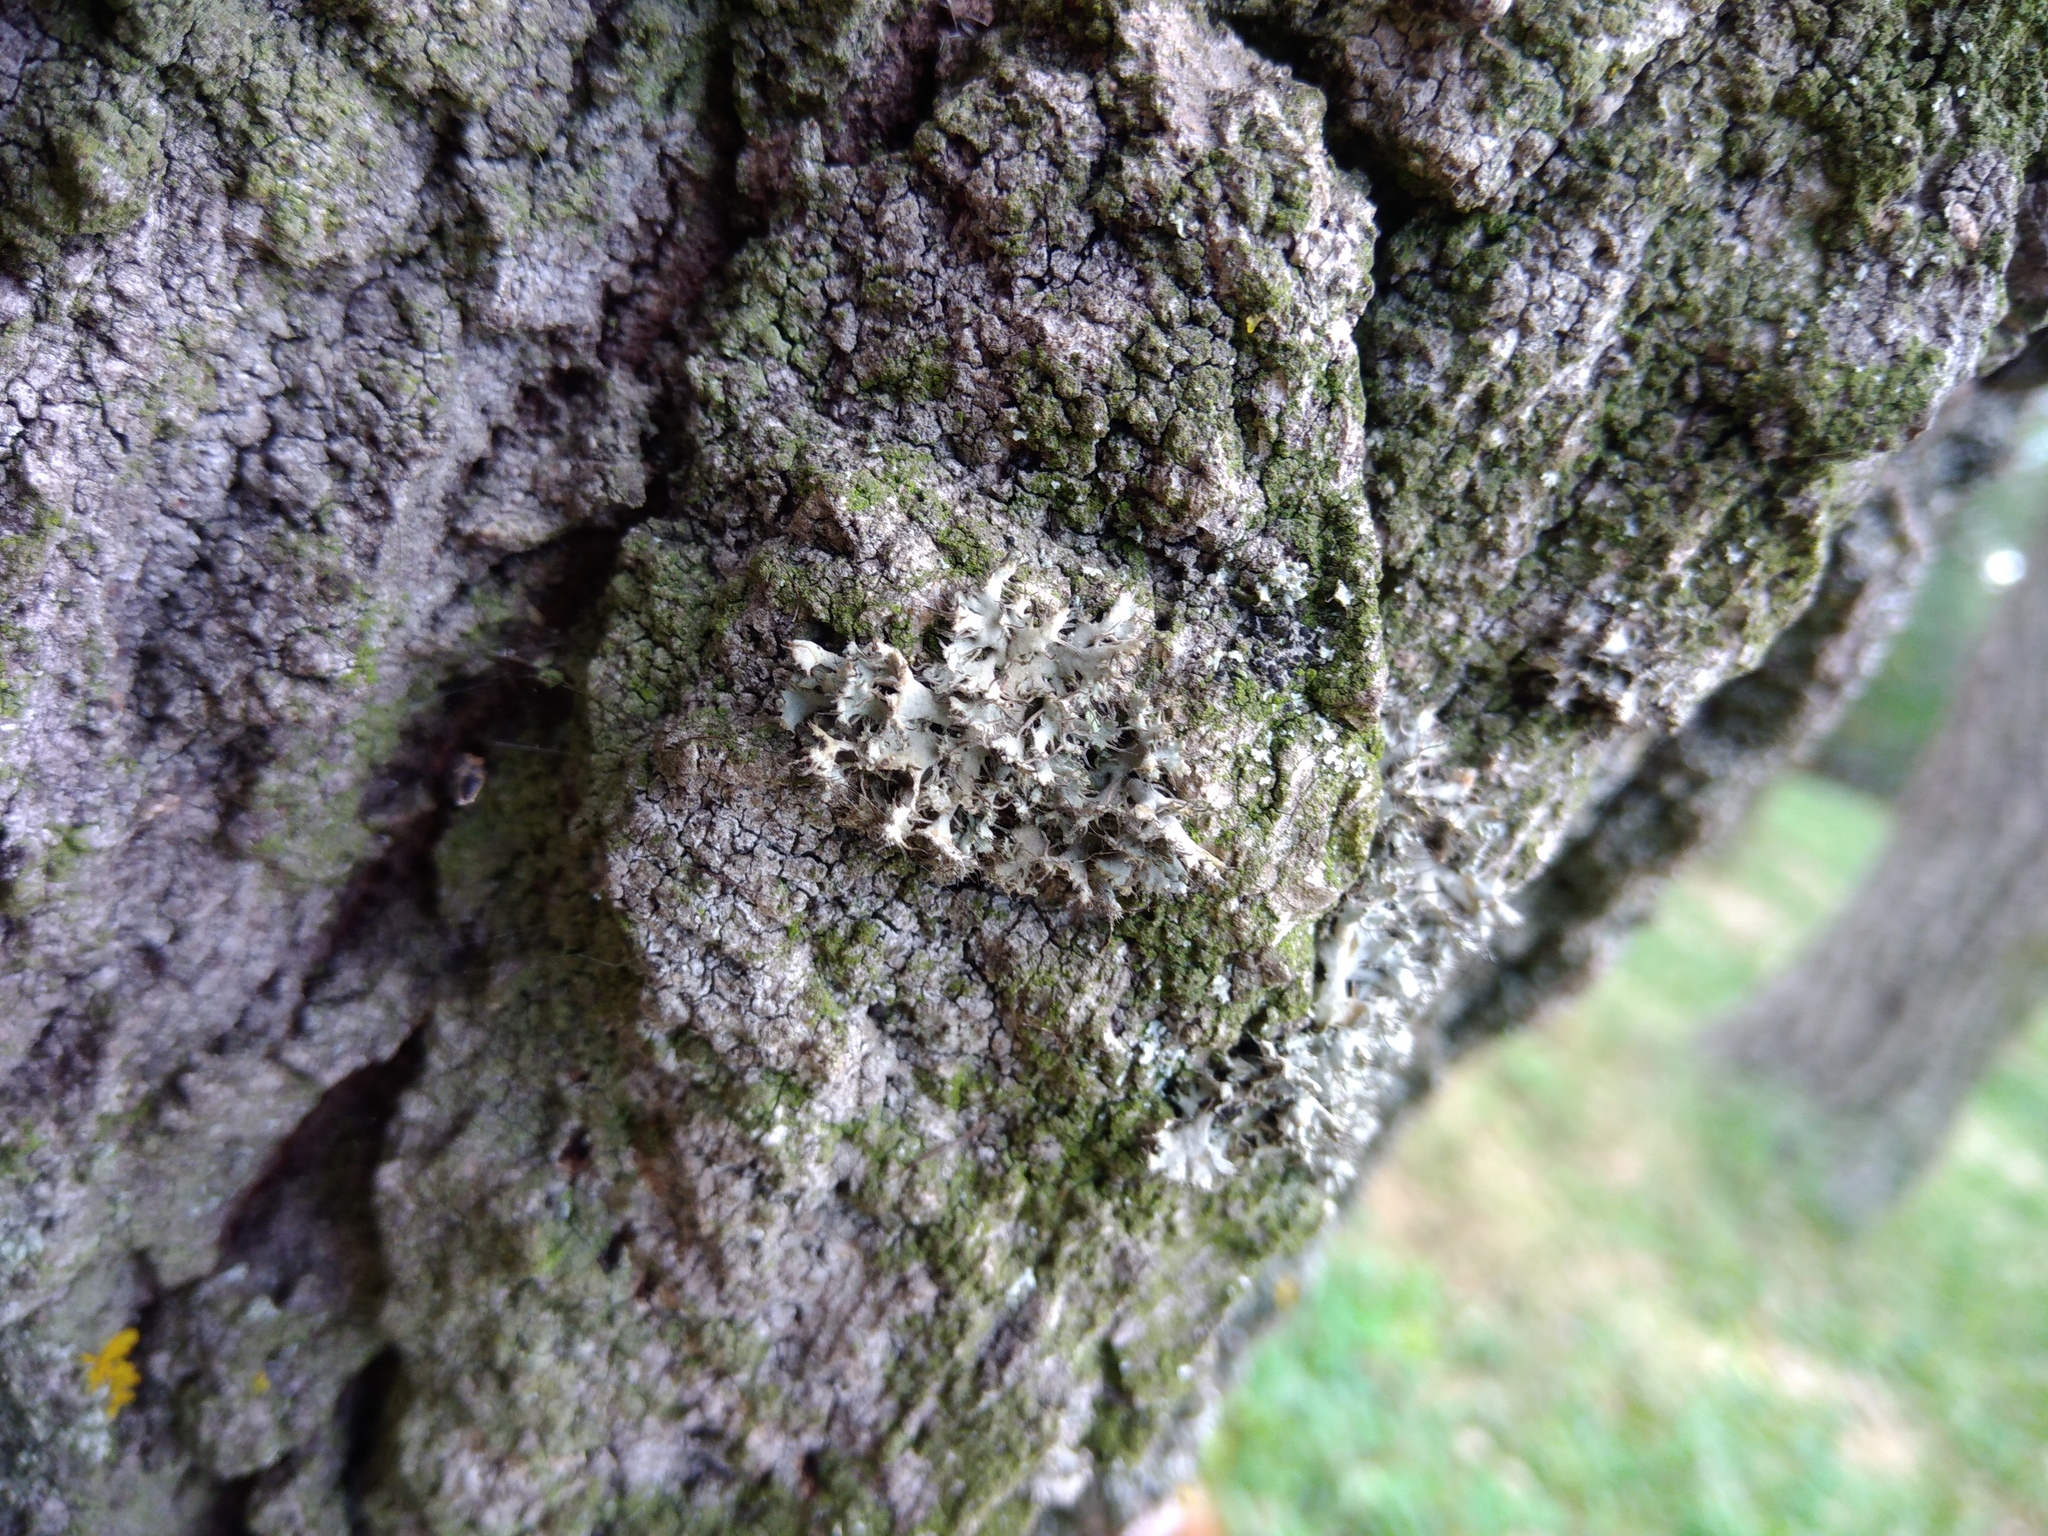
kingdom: Fungi
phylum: Ascomycota
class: Lecanoromycetes
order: Caliciales
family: Physciaceae
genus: Anaptychia
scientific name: Anaptychia ciliaris
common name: Great ciliated lichen
